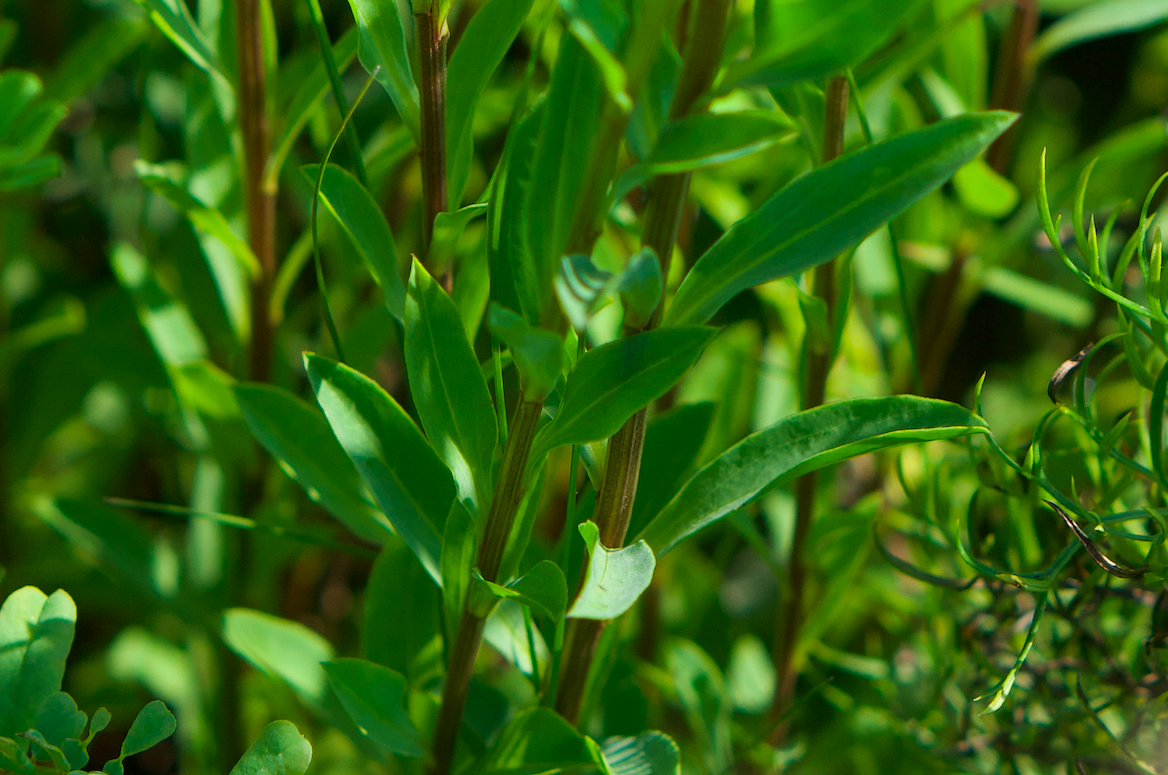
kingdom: Plantae
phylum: Tracheophyta
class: Magnoliopsida
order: Malpighiales
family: Linaceae
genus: Linum
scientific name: Linum flavum
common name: Yellow flax
